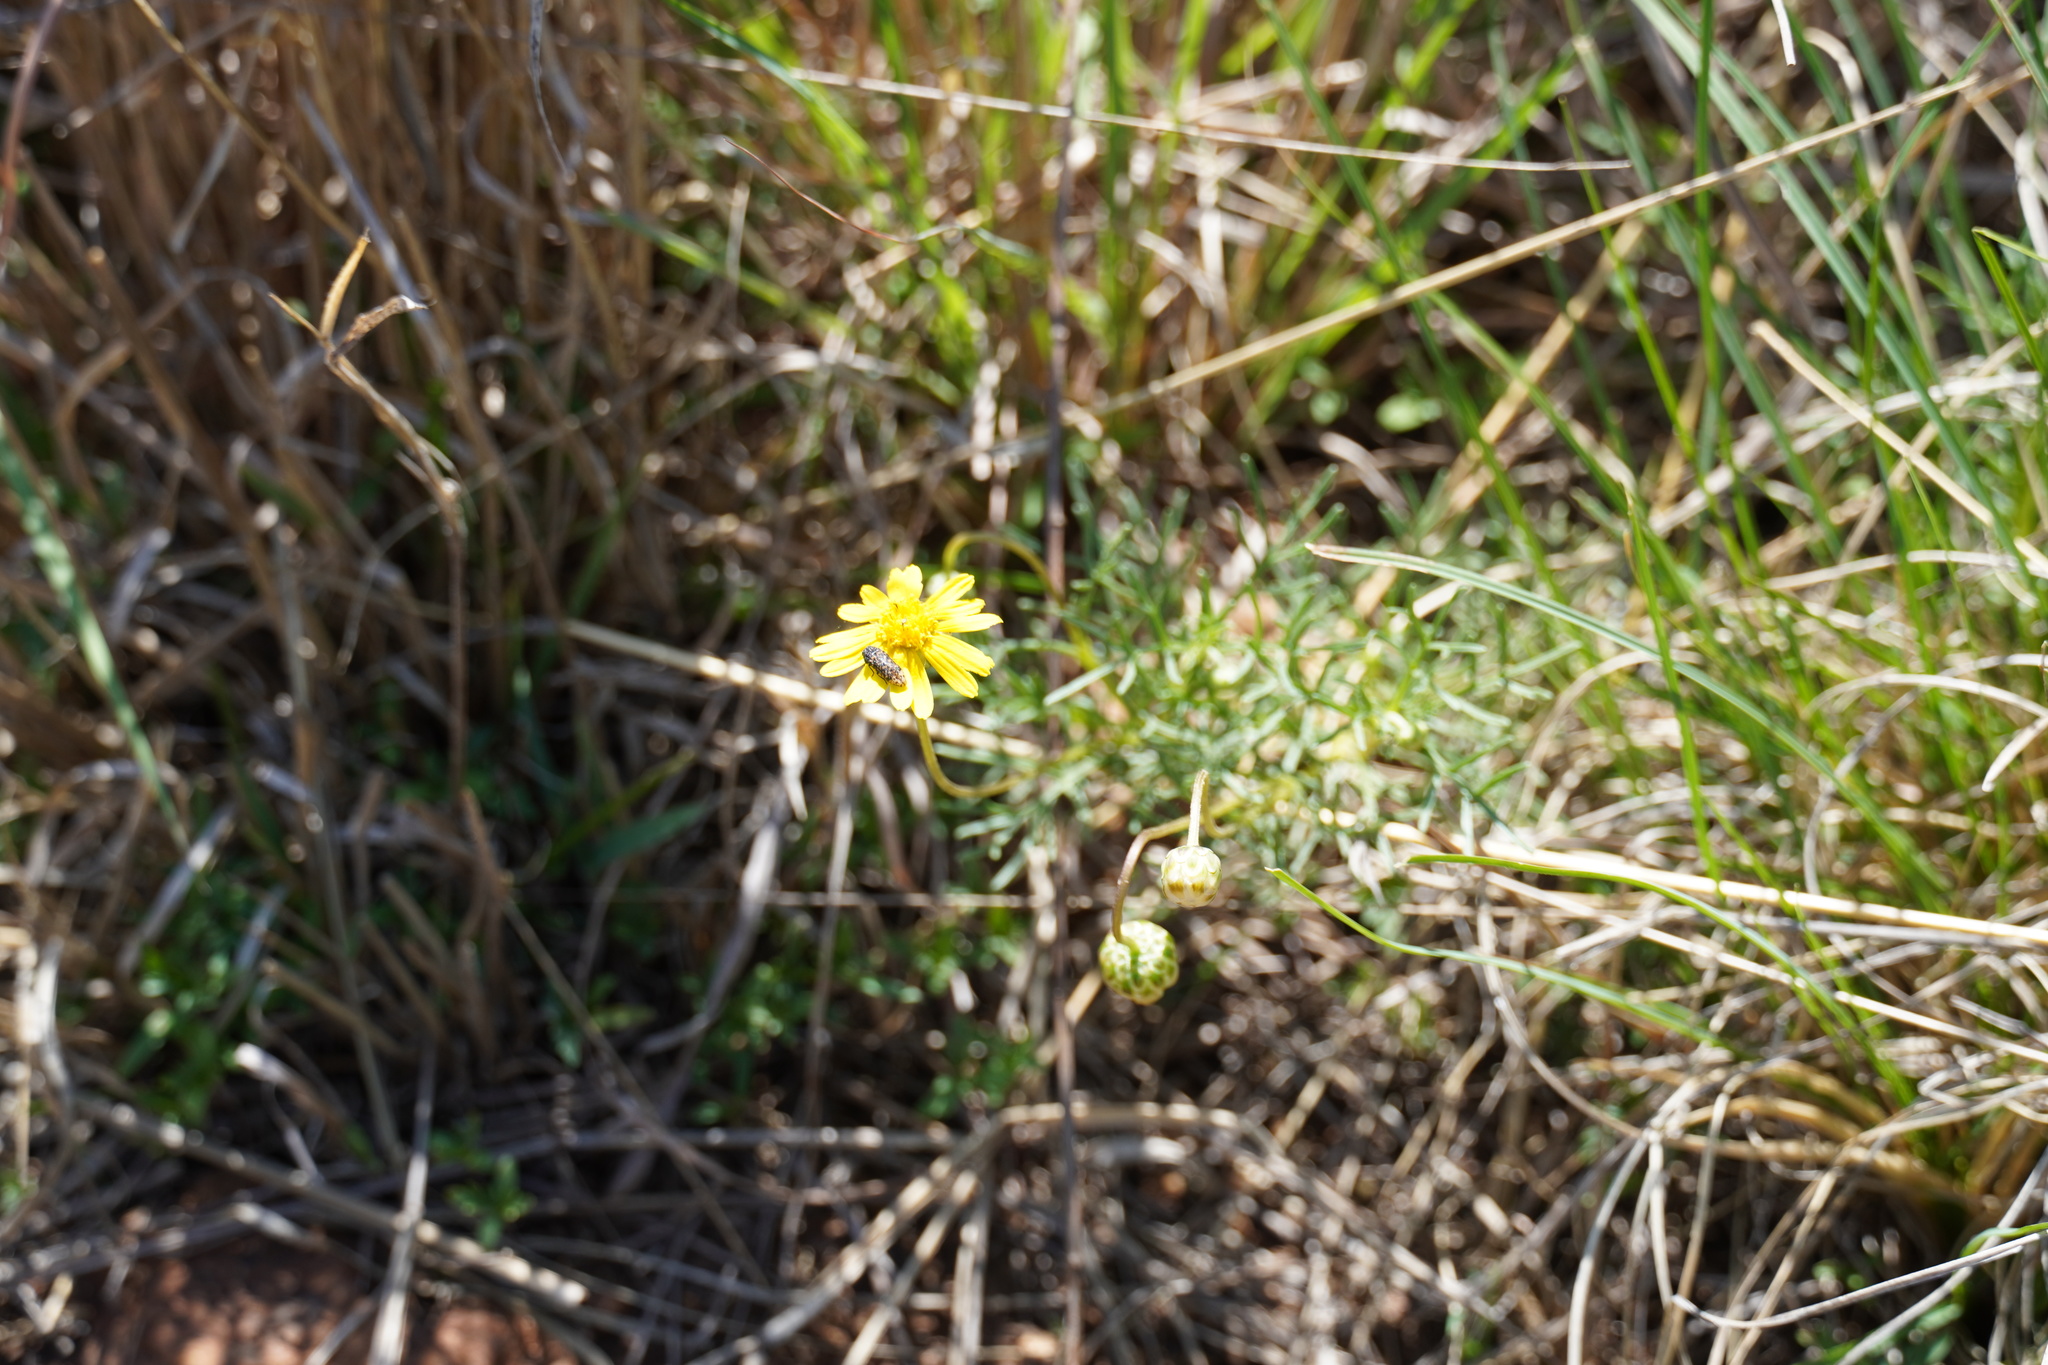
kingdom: Plantae
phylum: Tracheophyta
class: Magnoliopsida
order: Asterales
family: Asteraceae
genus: Ursinia
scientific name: Ursinia nana
